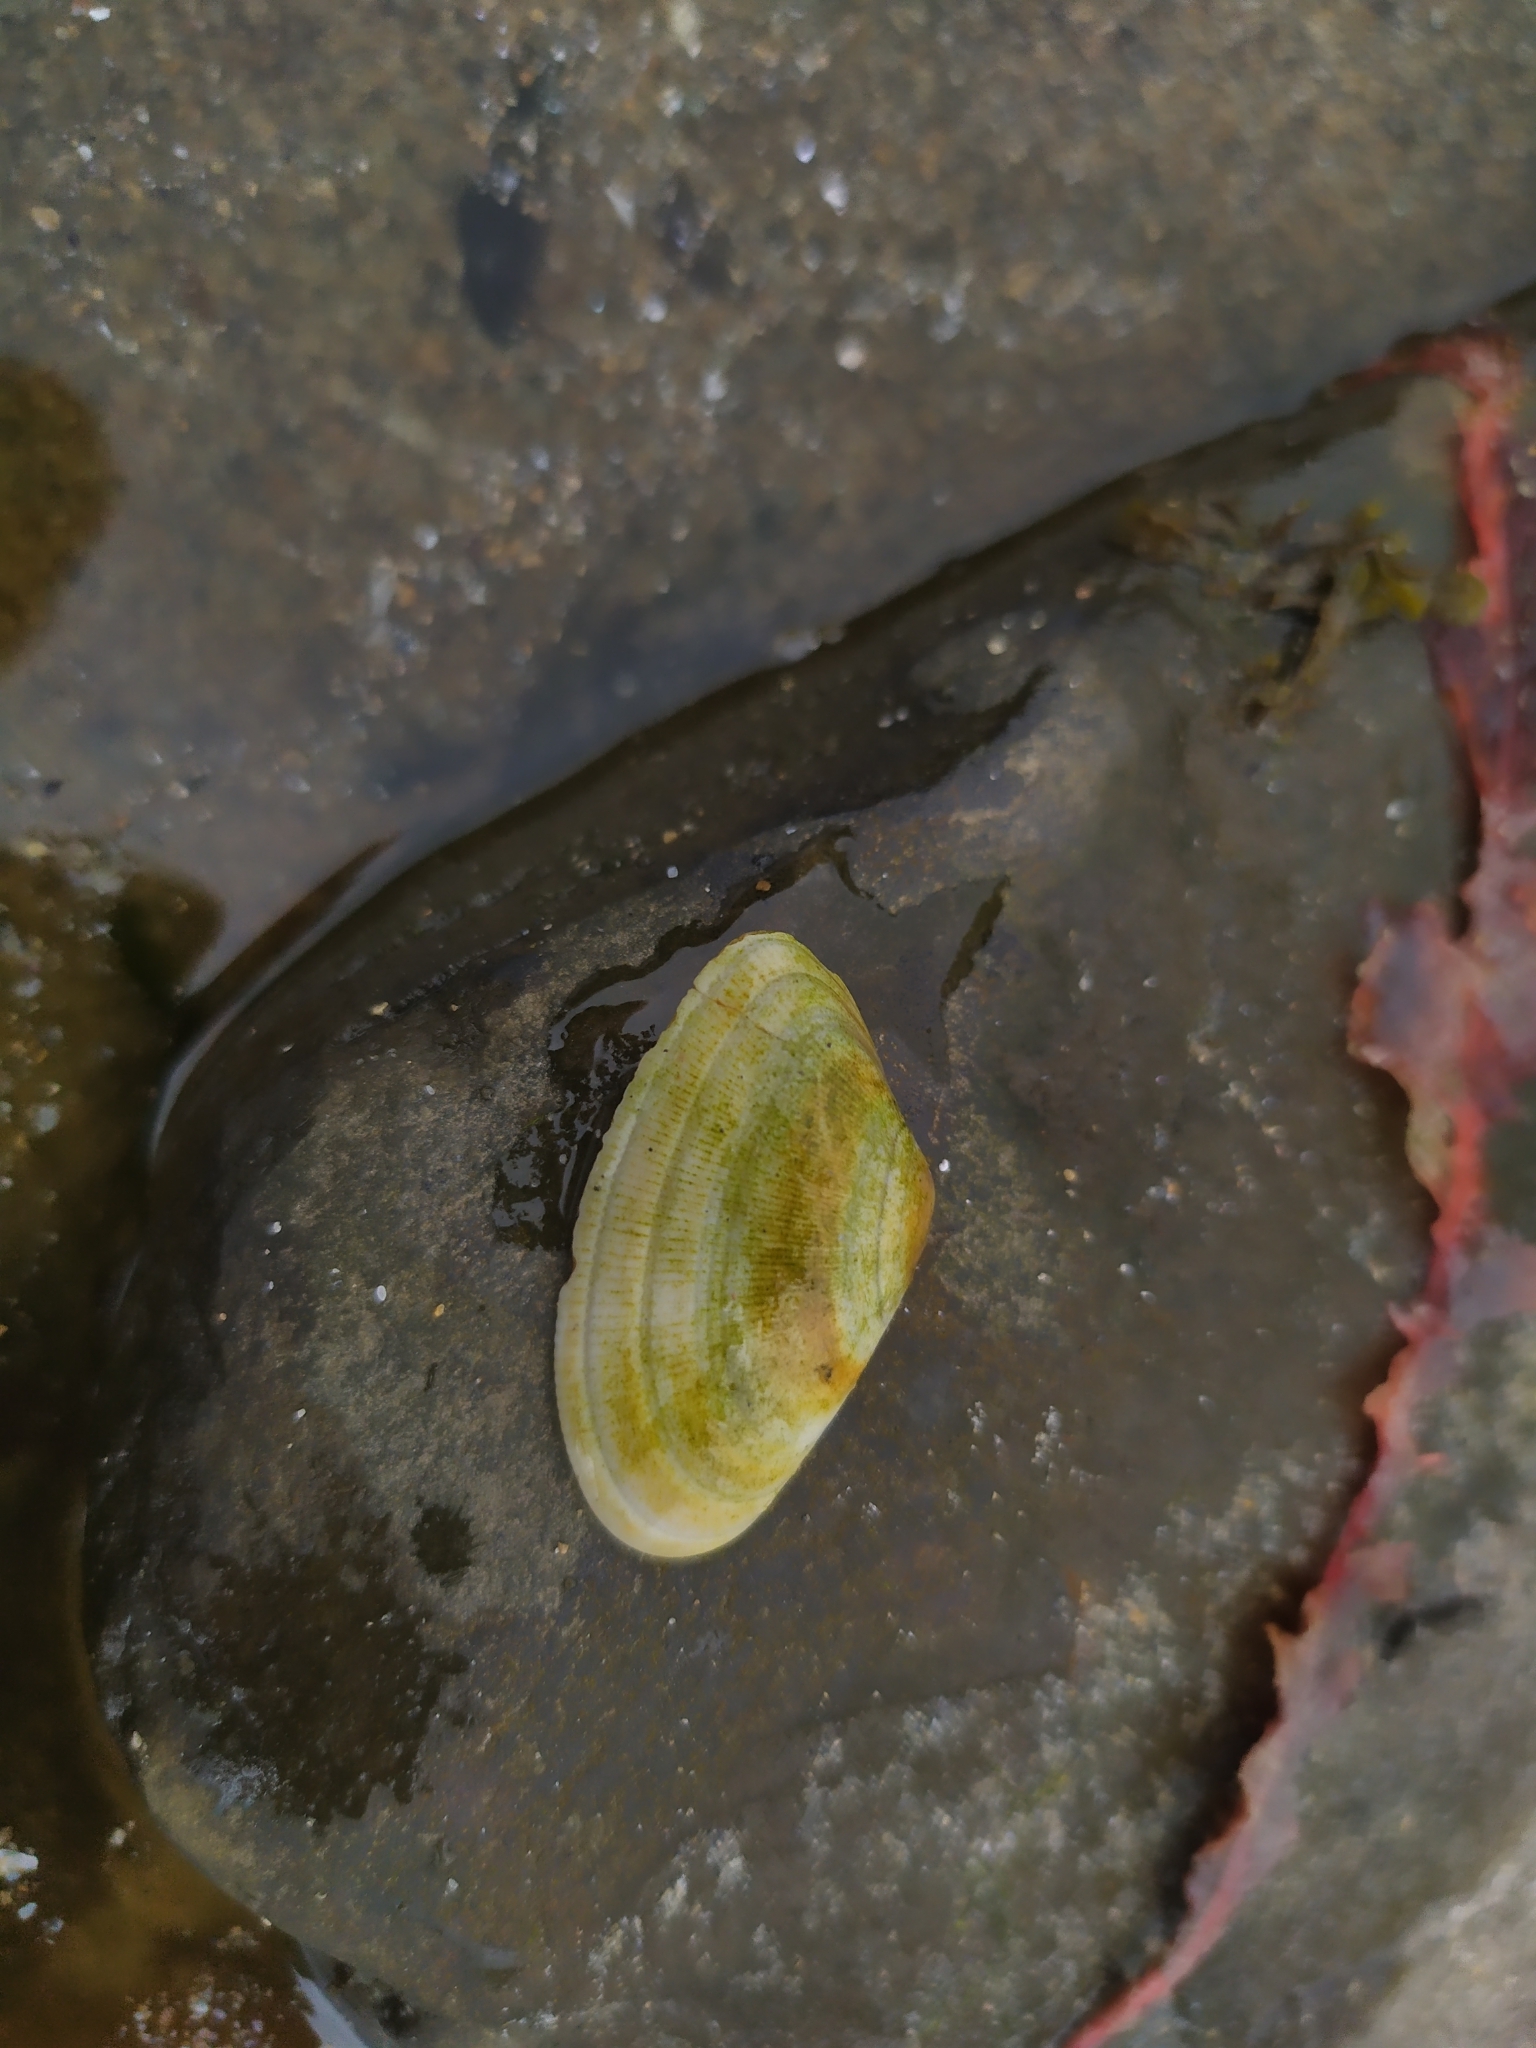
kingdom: Animalia
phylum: Mollusca
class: Bivalvia
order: Cardiida
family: Donacidae
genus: Donax
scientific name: Donax vittatus
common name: Banded wedge-shell
